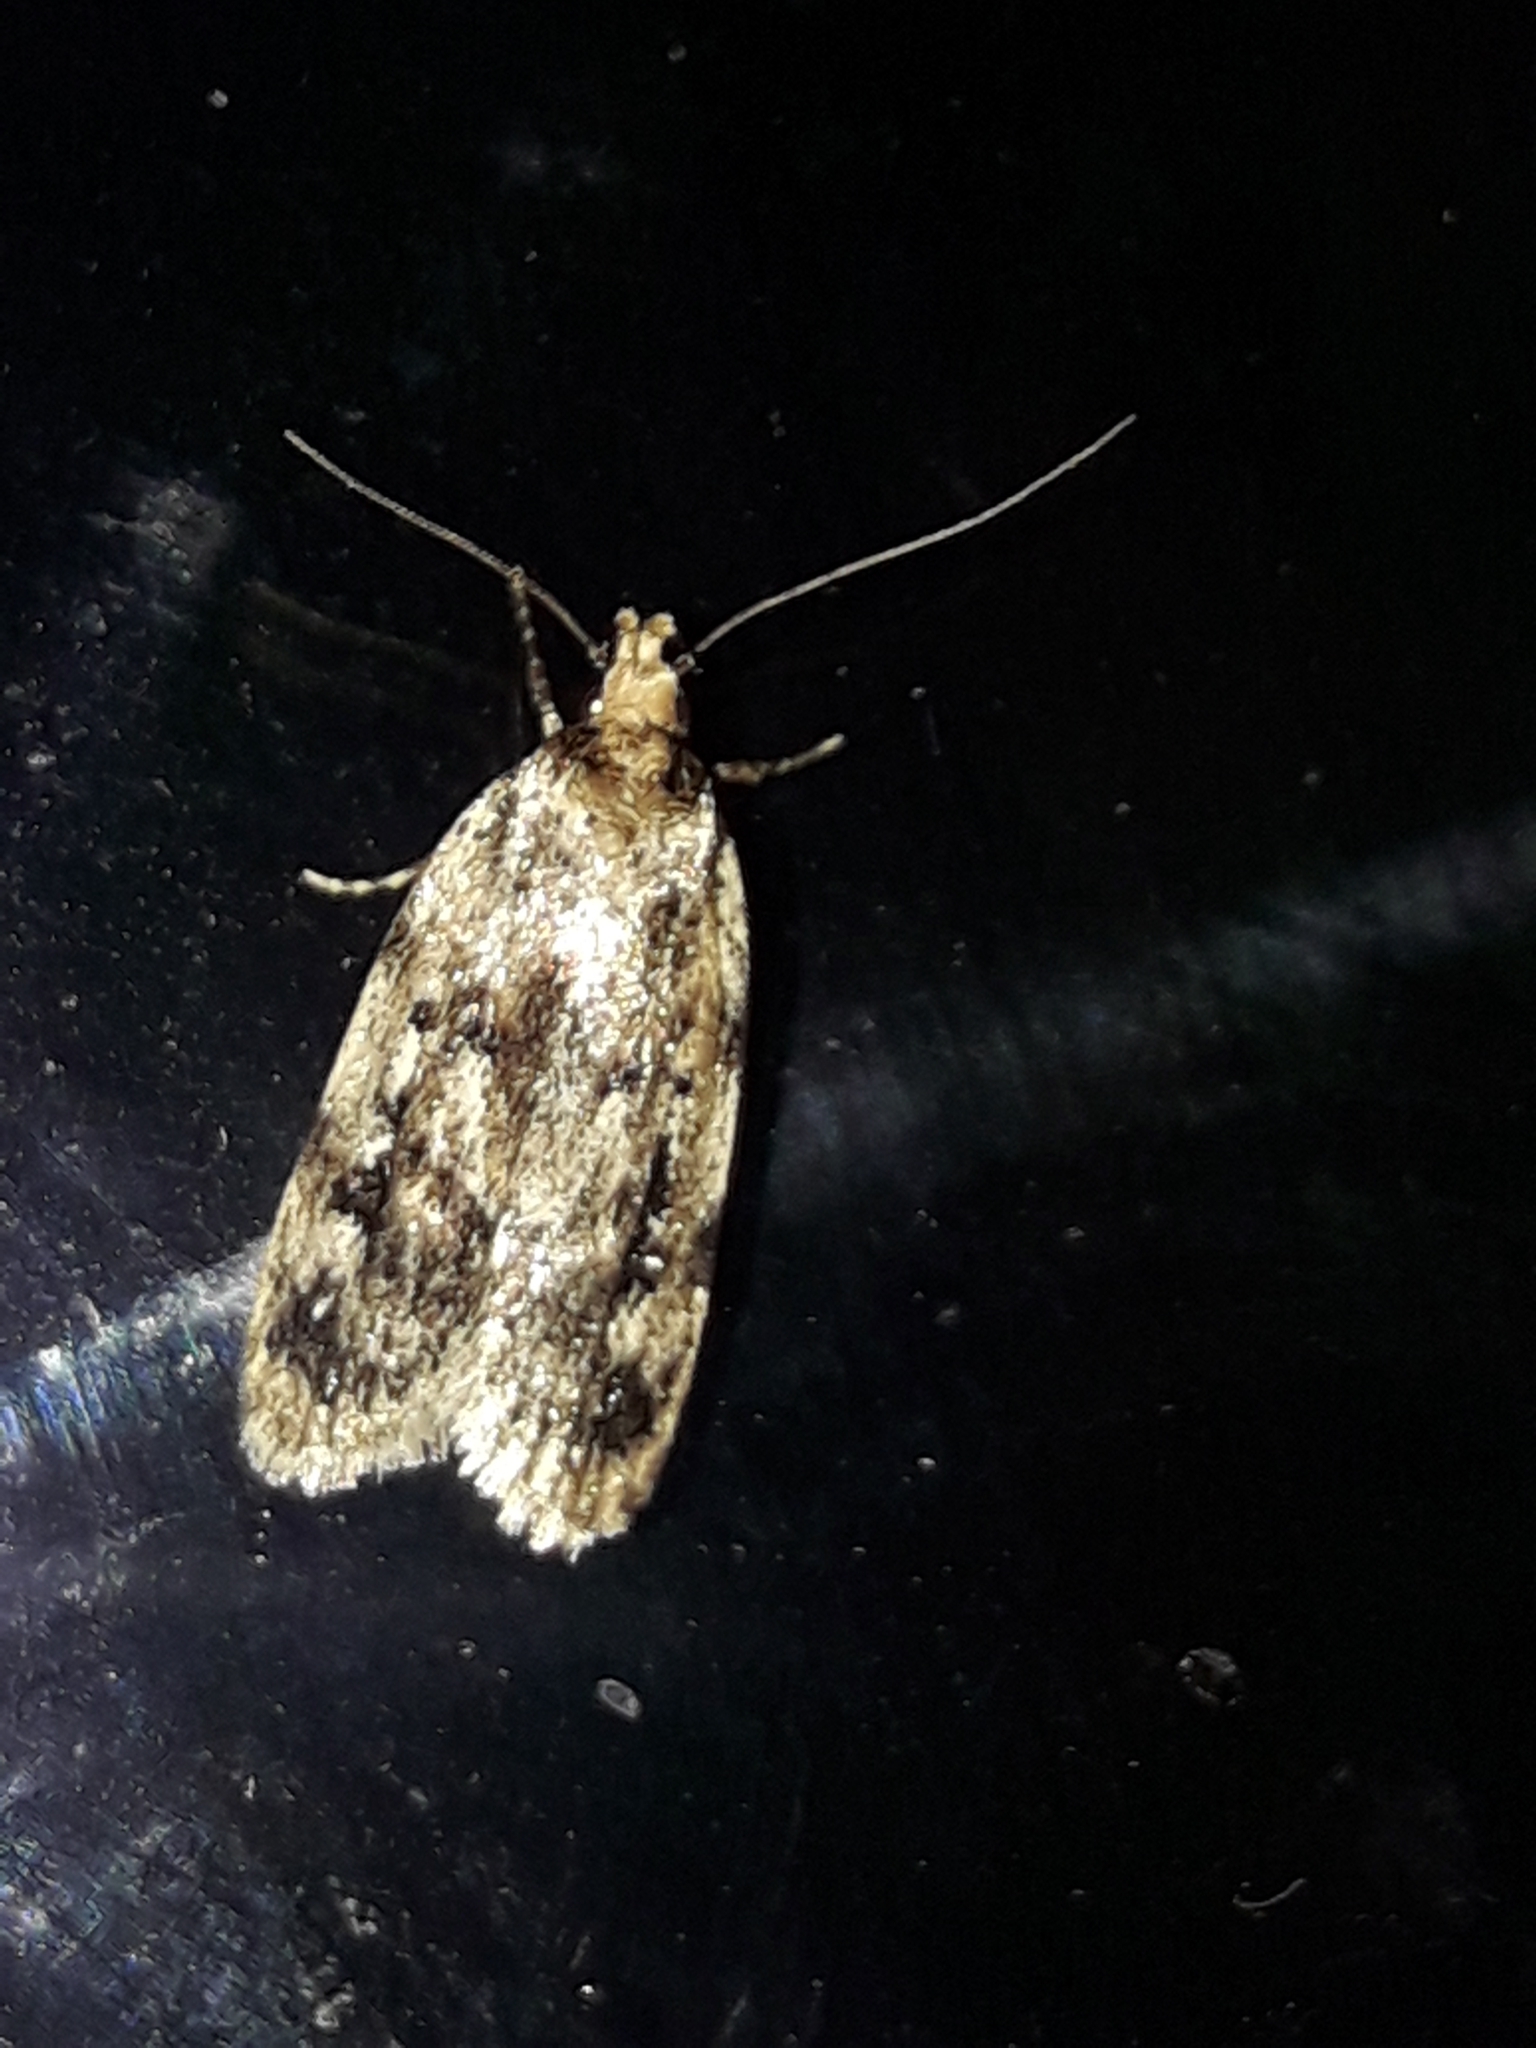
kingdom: Animalia
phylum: Arthropoda
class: Insecta
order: Lepidoptera
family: Oecophoridae
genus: Barea
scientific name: Barea exarcha
